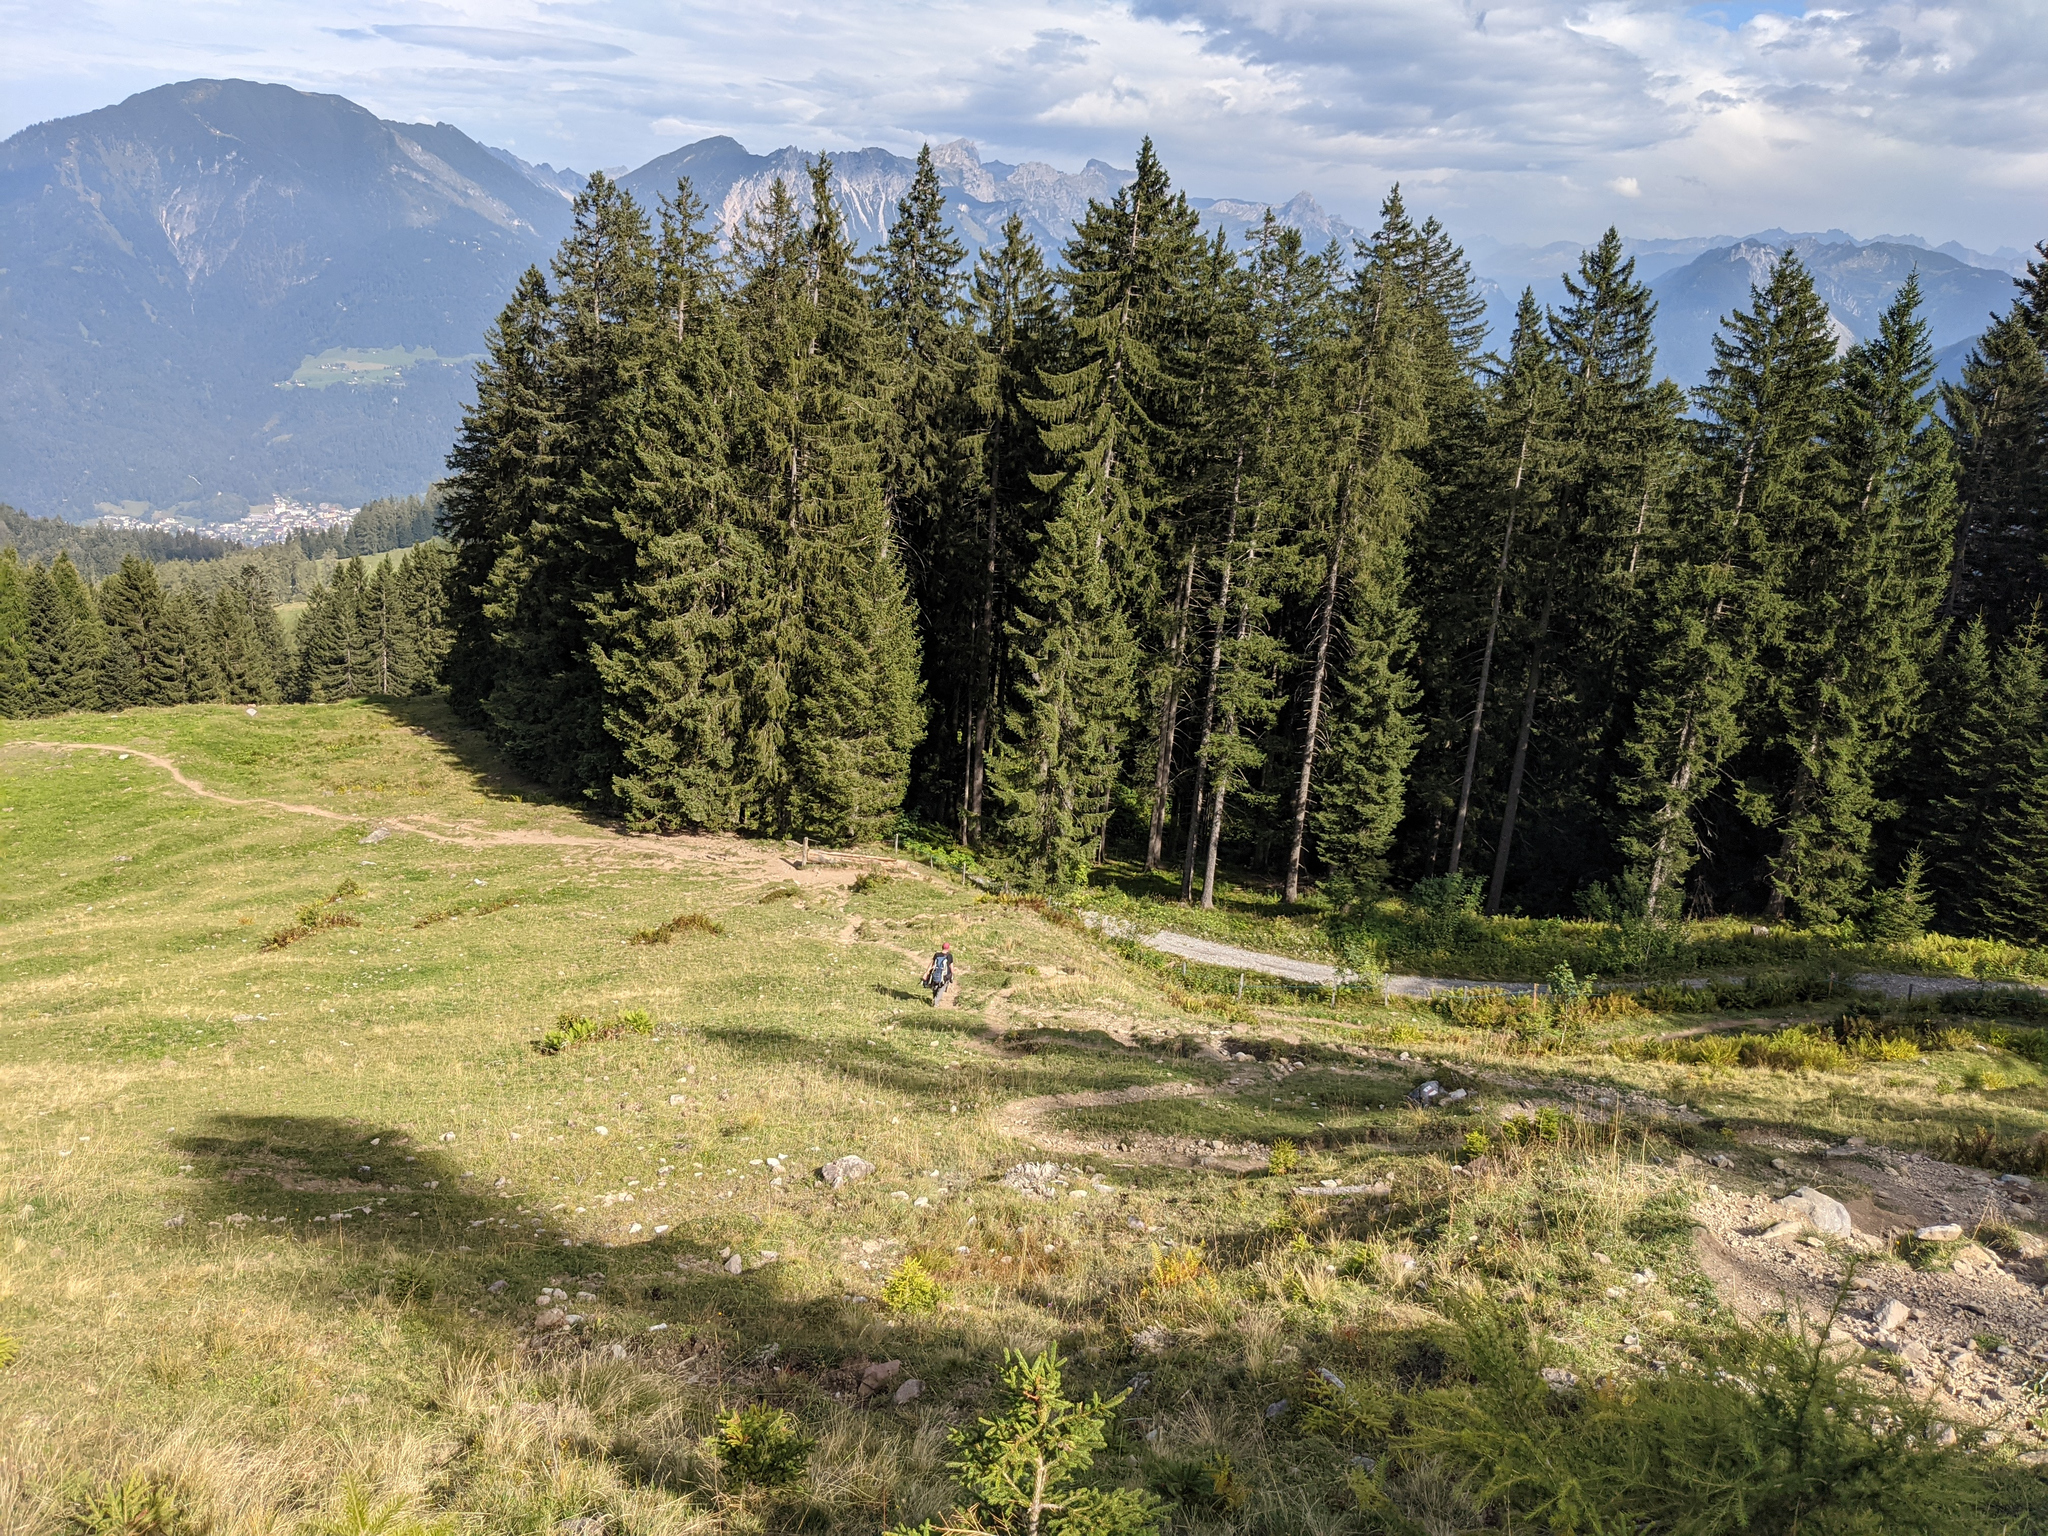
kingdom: Plantae
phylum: Tracheophyta
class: Pinopsida
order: Pinales
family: Pinaceae
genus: Picea
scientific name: Picea abies
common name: Norway spruce
